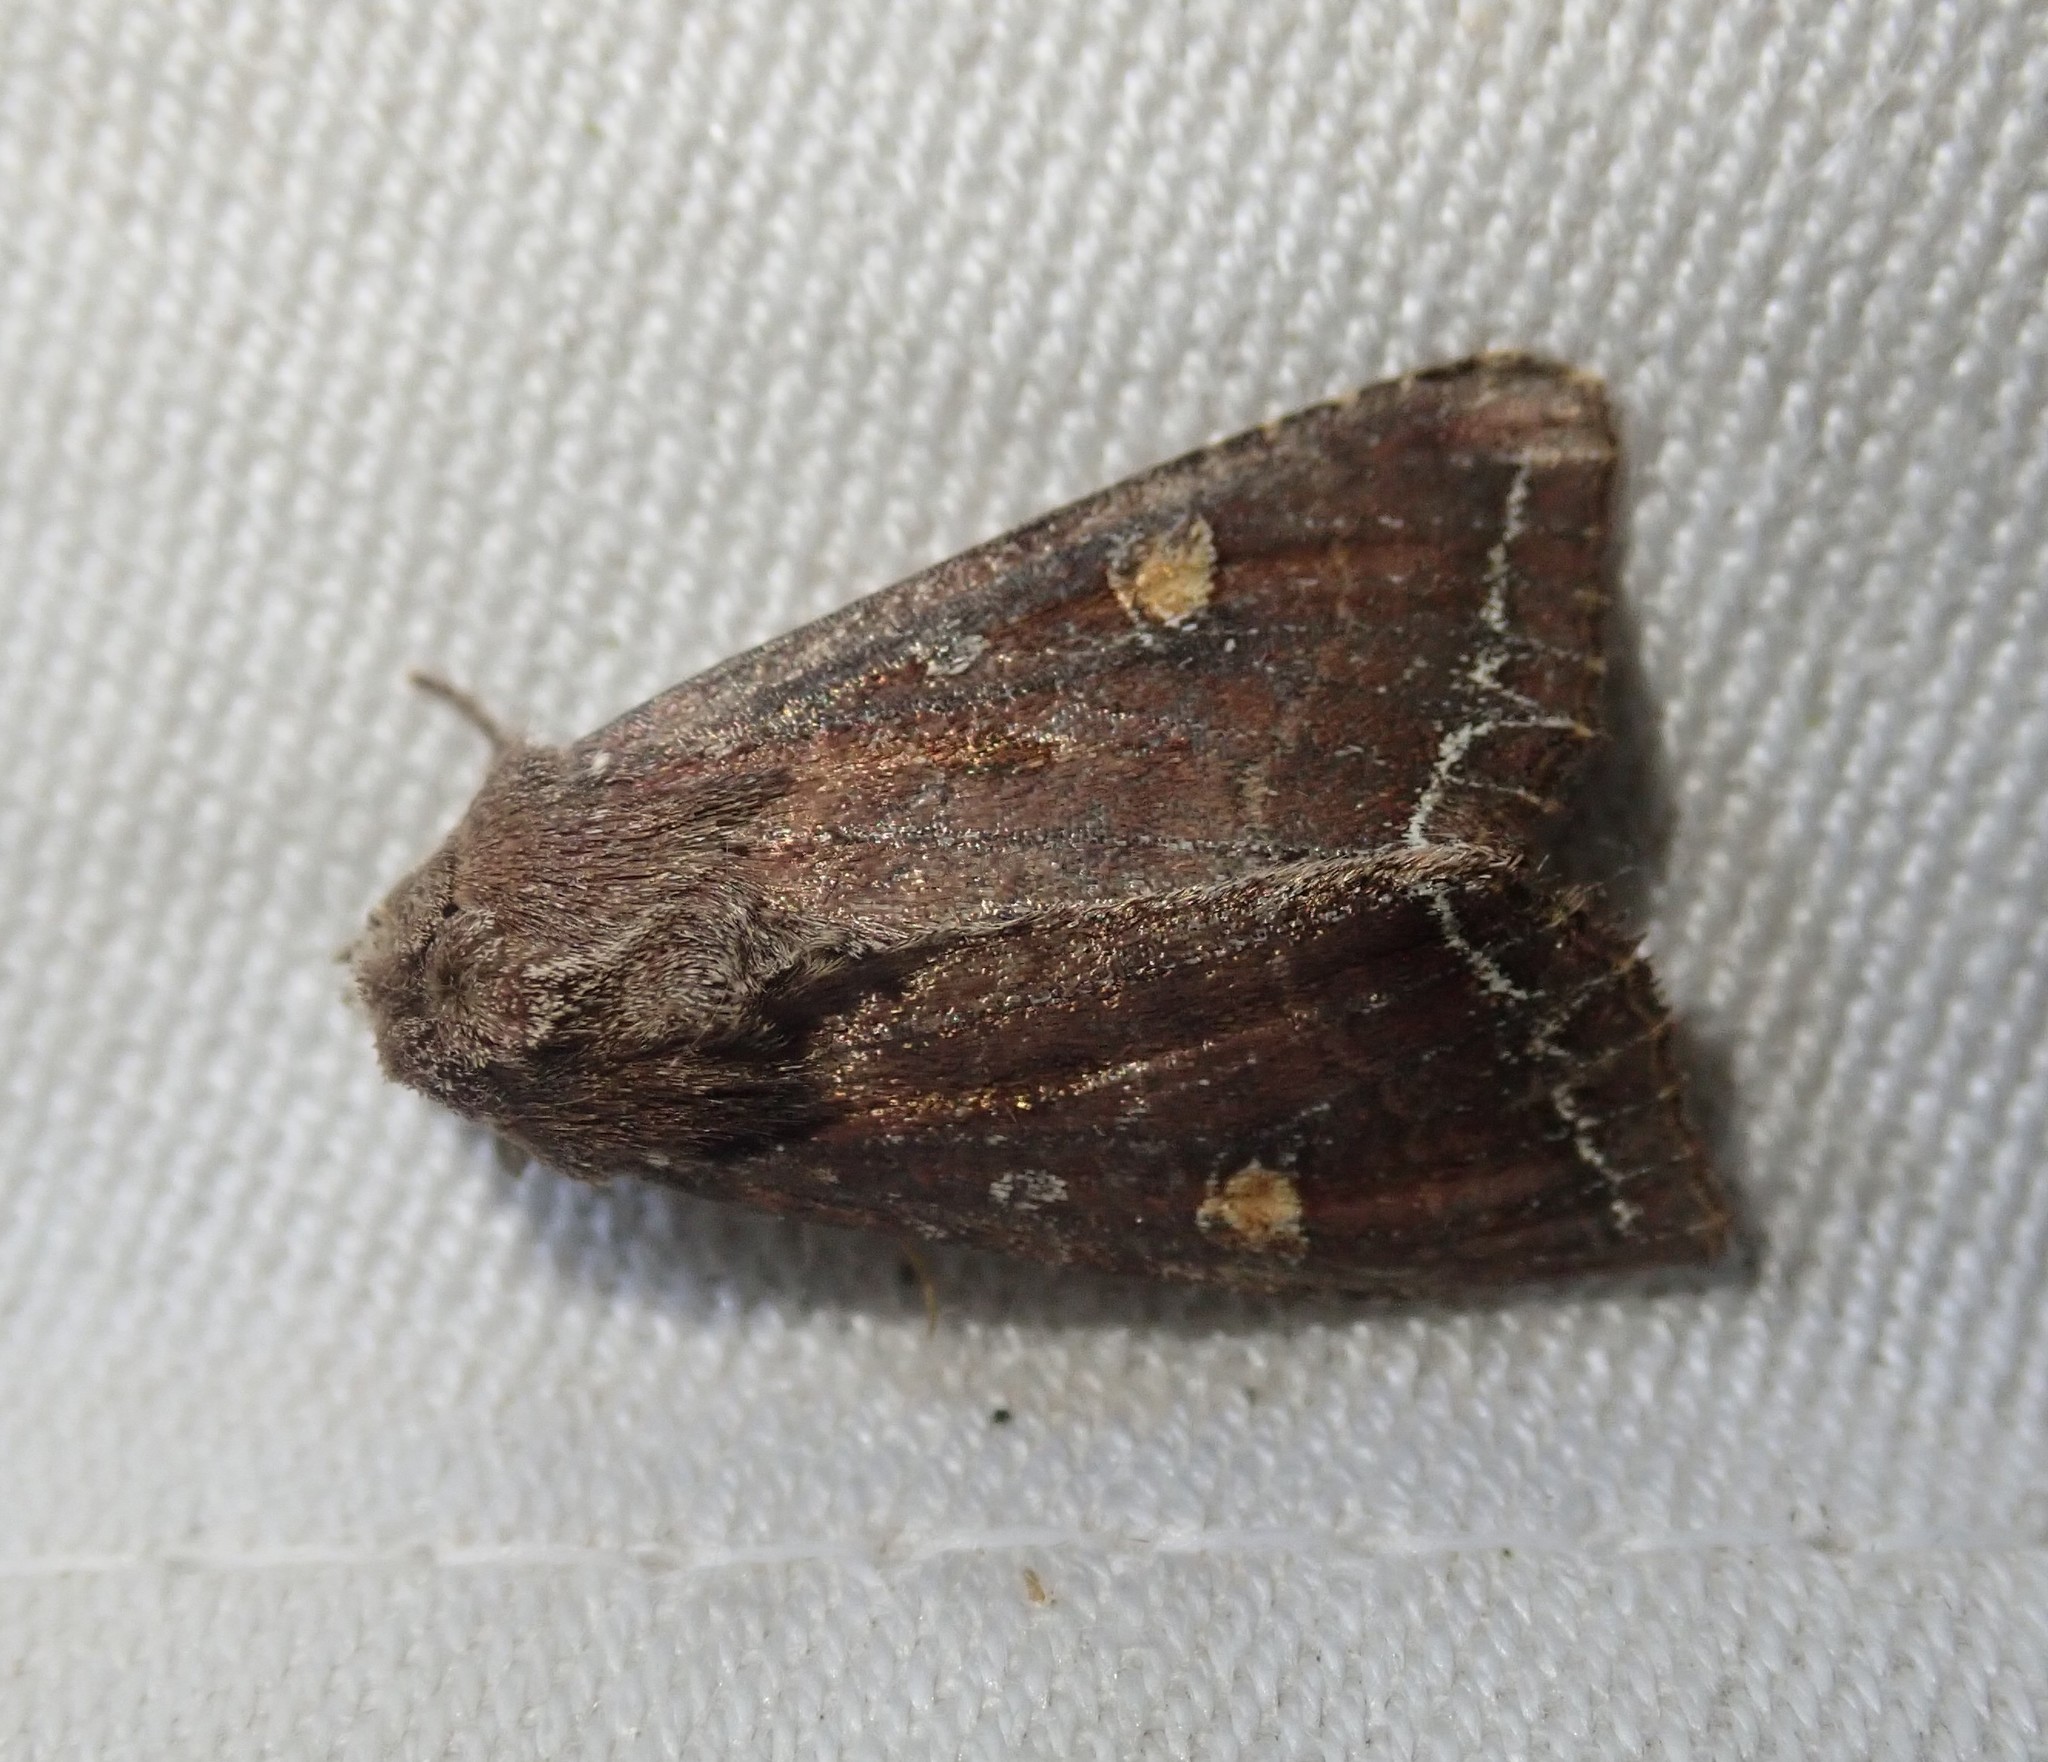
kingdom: Animalia
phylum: Arthropoda
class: Insecta
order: Lepidoptera
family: Noctuidae
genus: Lacanobia
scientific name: Lacanobia oleracea
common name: Bright-line brown-eye
